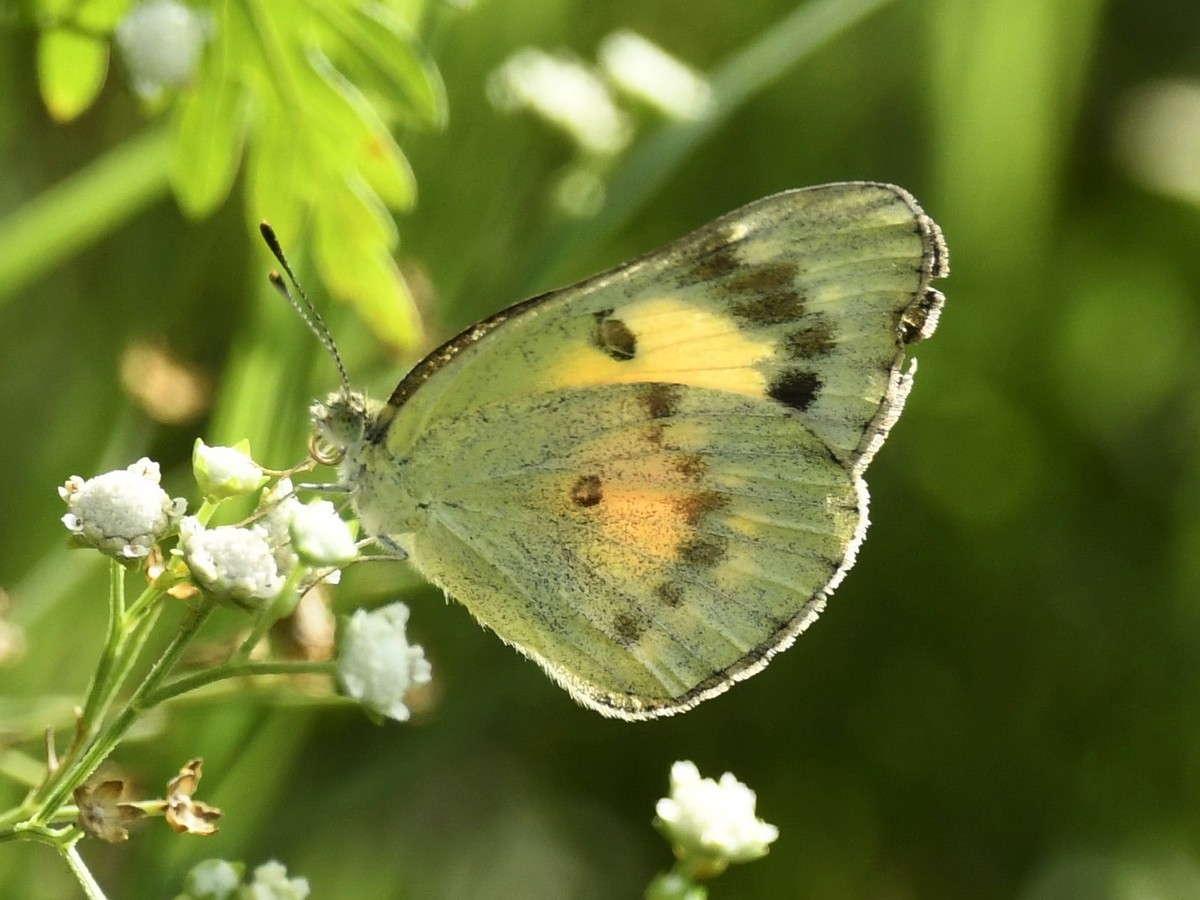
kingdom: Animalia
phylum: Arthropoda
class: Insecta
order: Lepidoptera
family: Pieridae
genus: Colotis
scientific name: Colotis amata
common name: Small salmon arab
